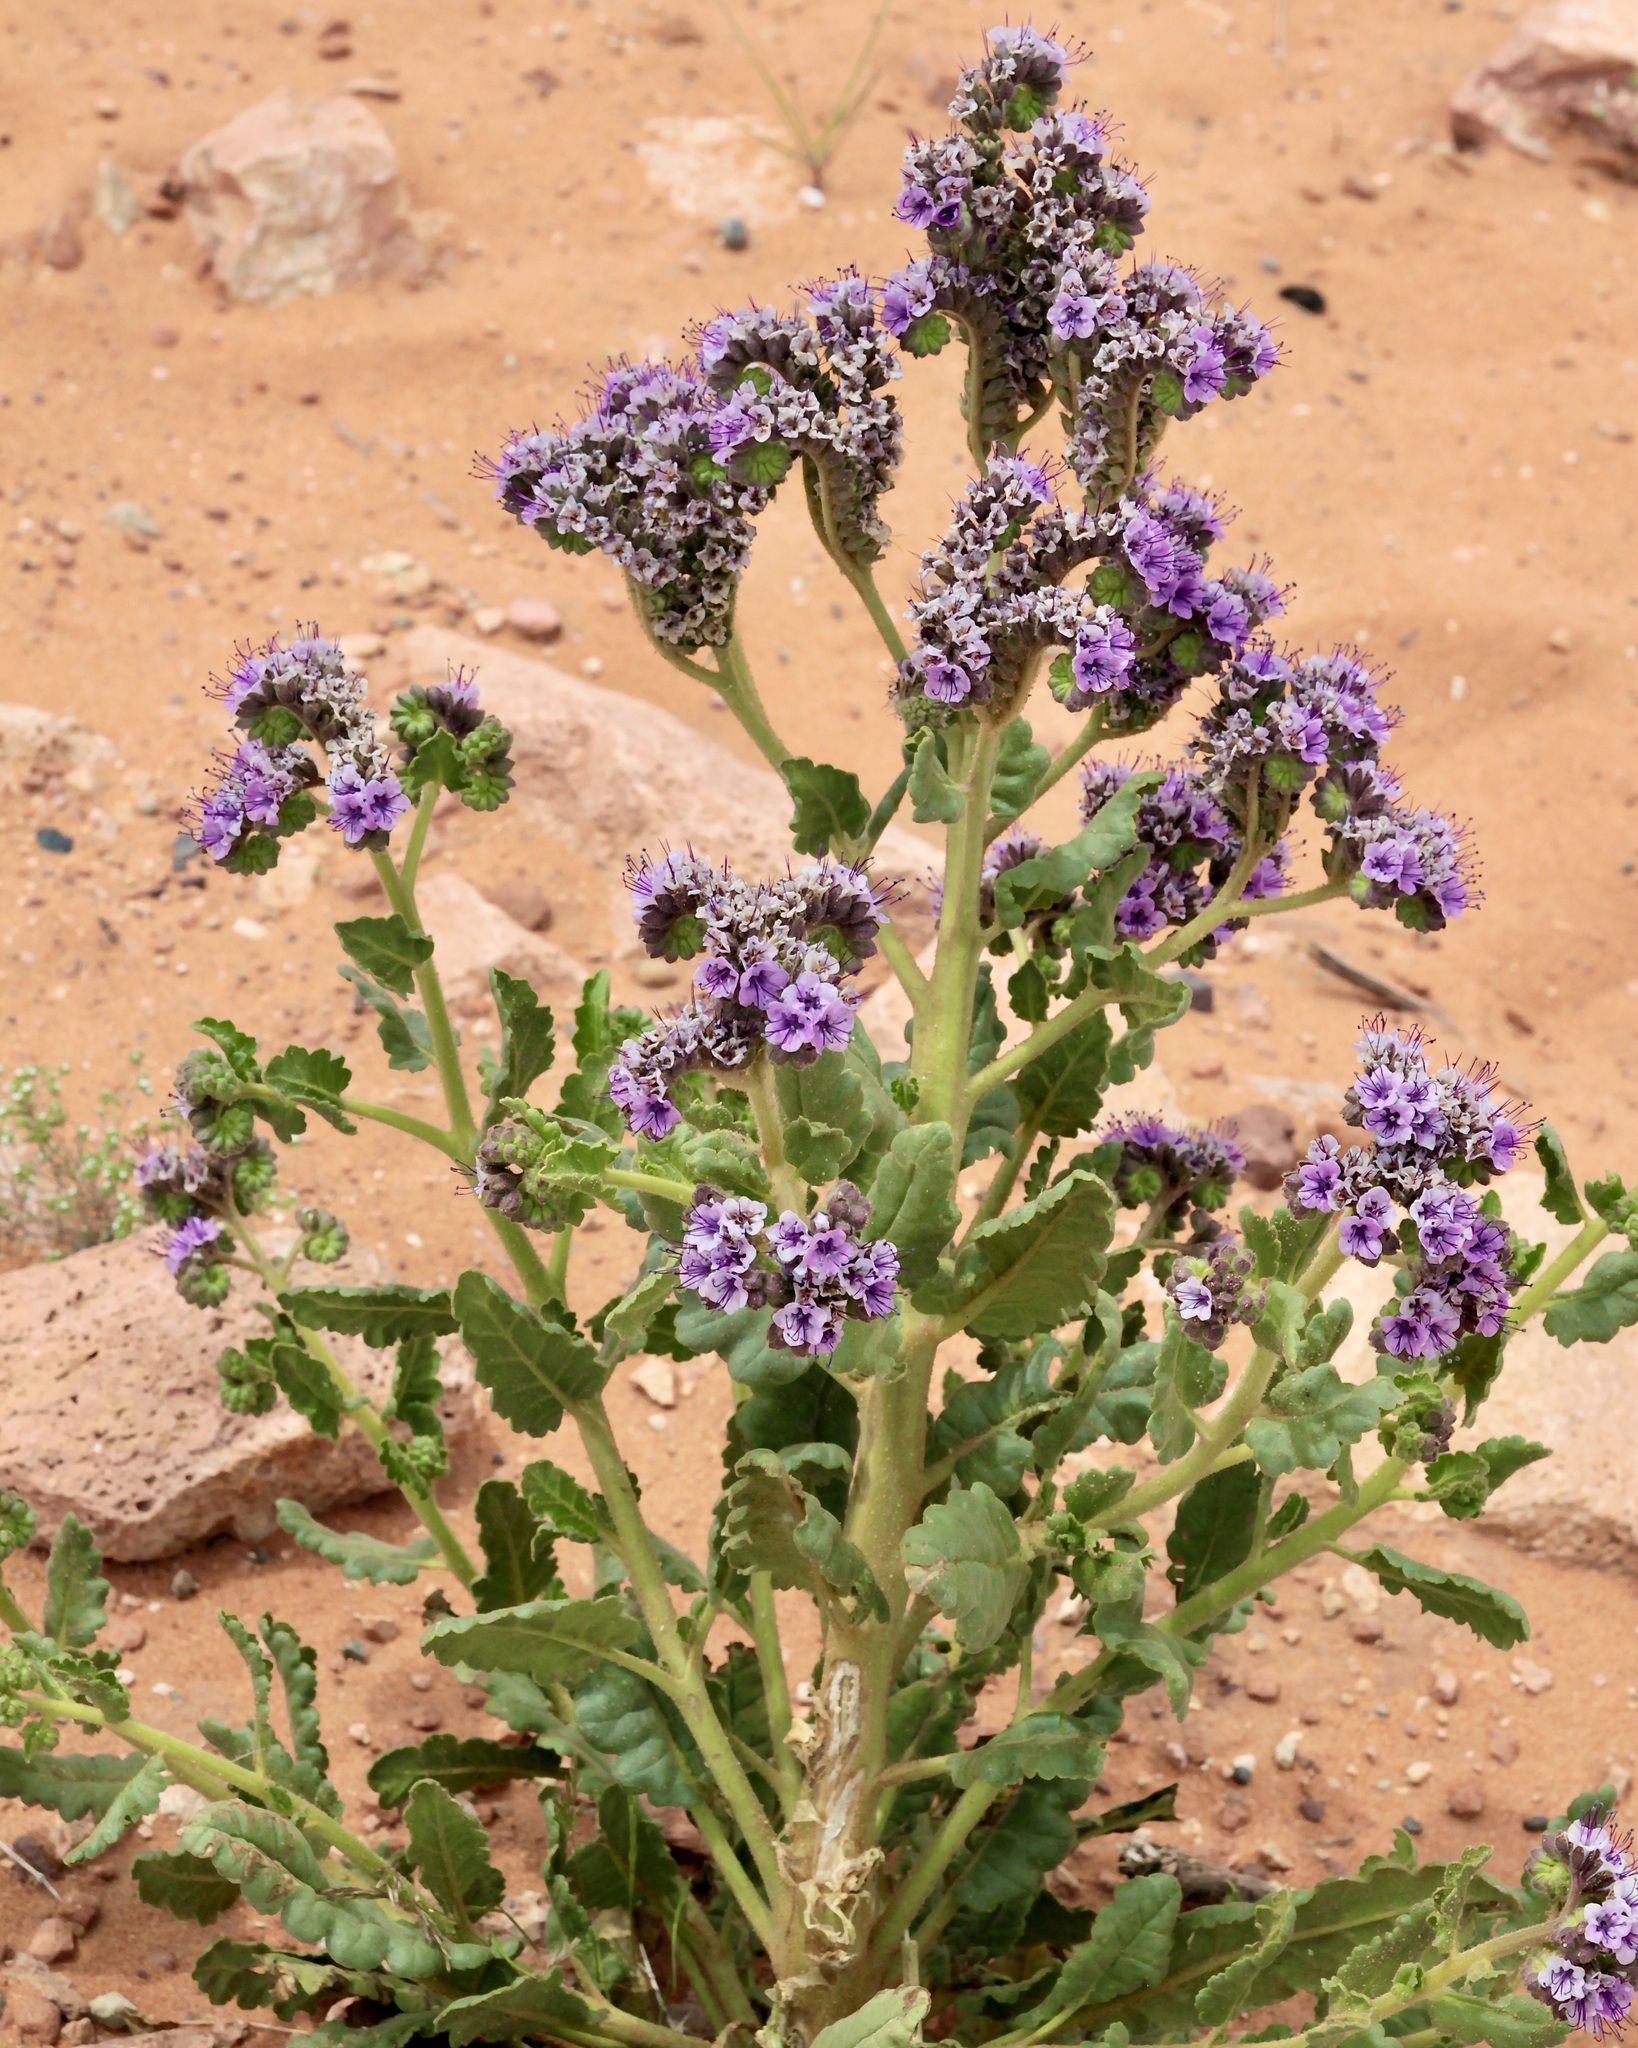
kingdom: Plantae
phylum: Tracheophyta
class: Magnoliopsida
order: Boraginales
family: Hydrophyllaceae
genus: Phacelia
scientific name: Phacelia integrifolia
